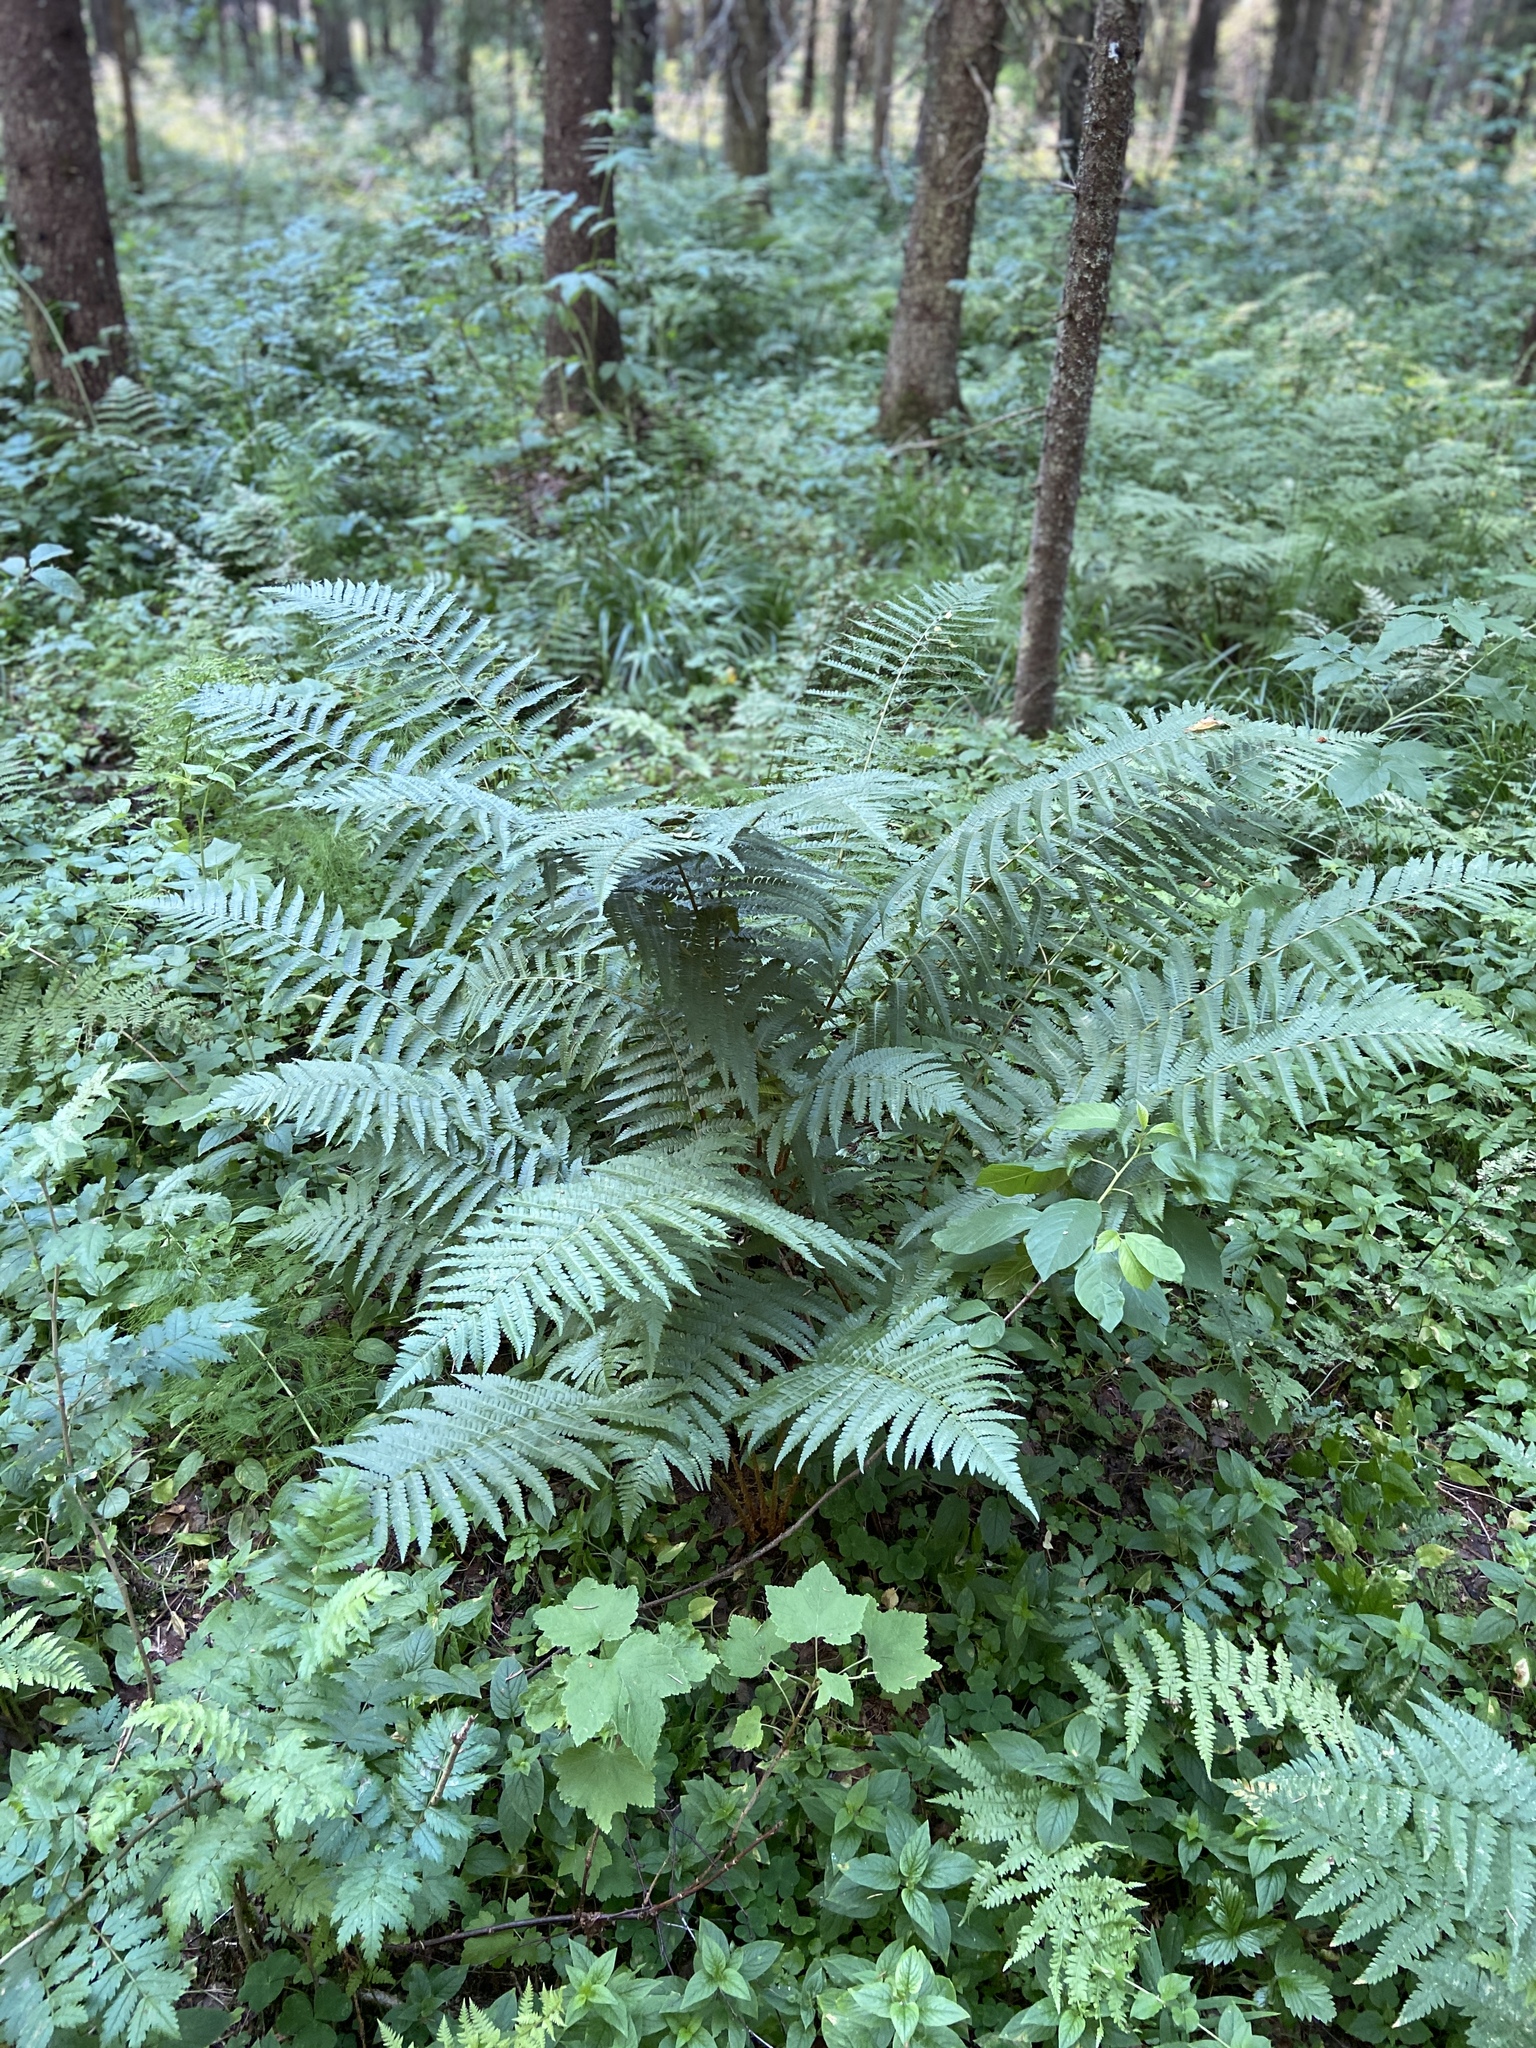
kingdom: Plantae
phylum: Tracheophyta
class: Polypodiopsida
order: Polypodiales
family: Dryopteridaceae
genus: Dryopteris
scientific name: Dryopteris filix-mas
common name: Male fern
